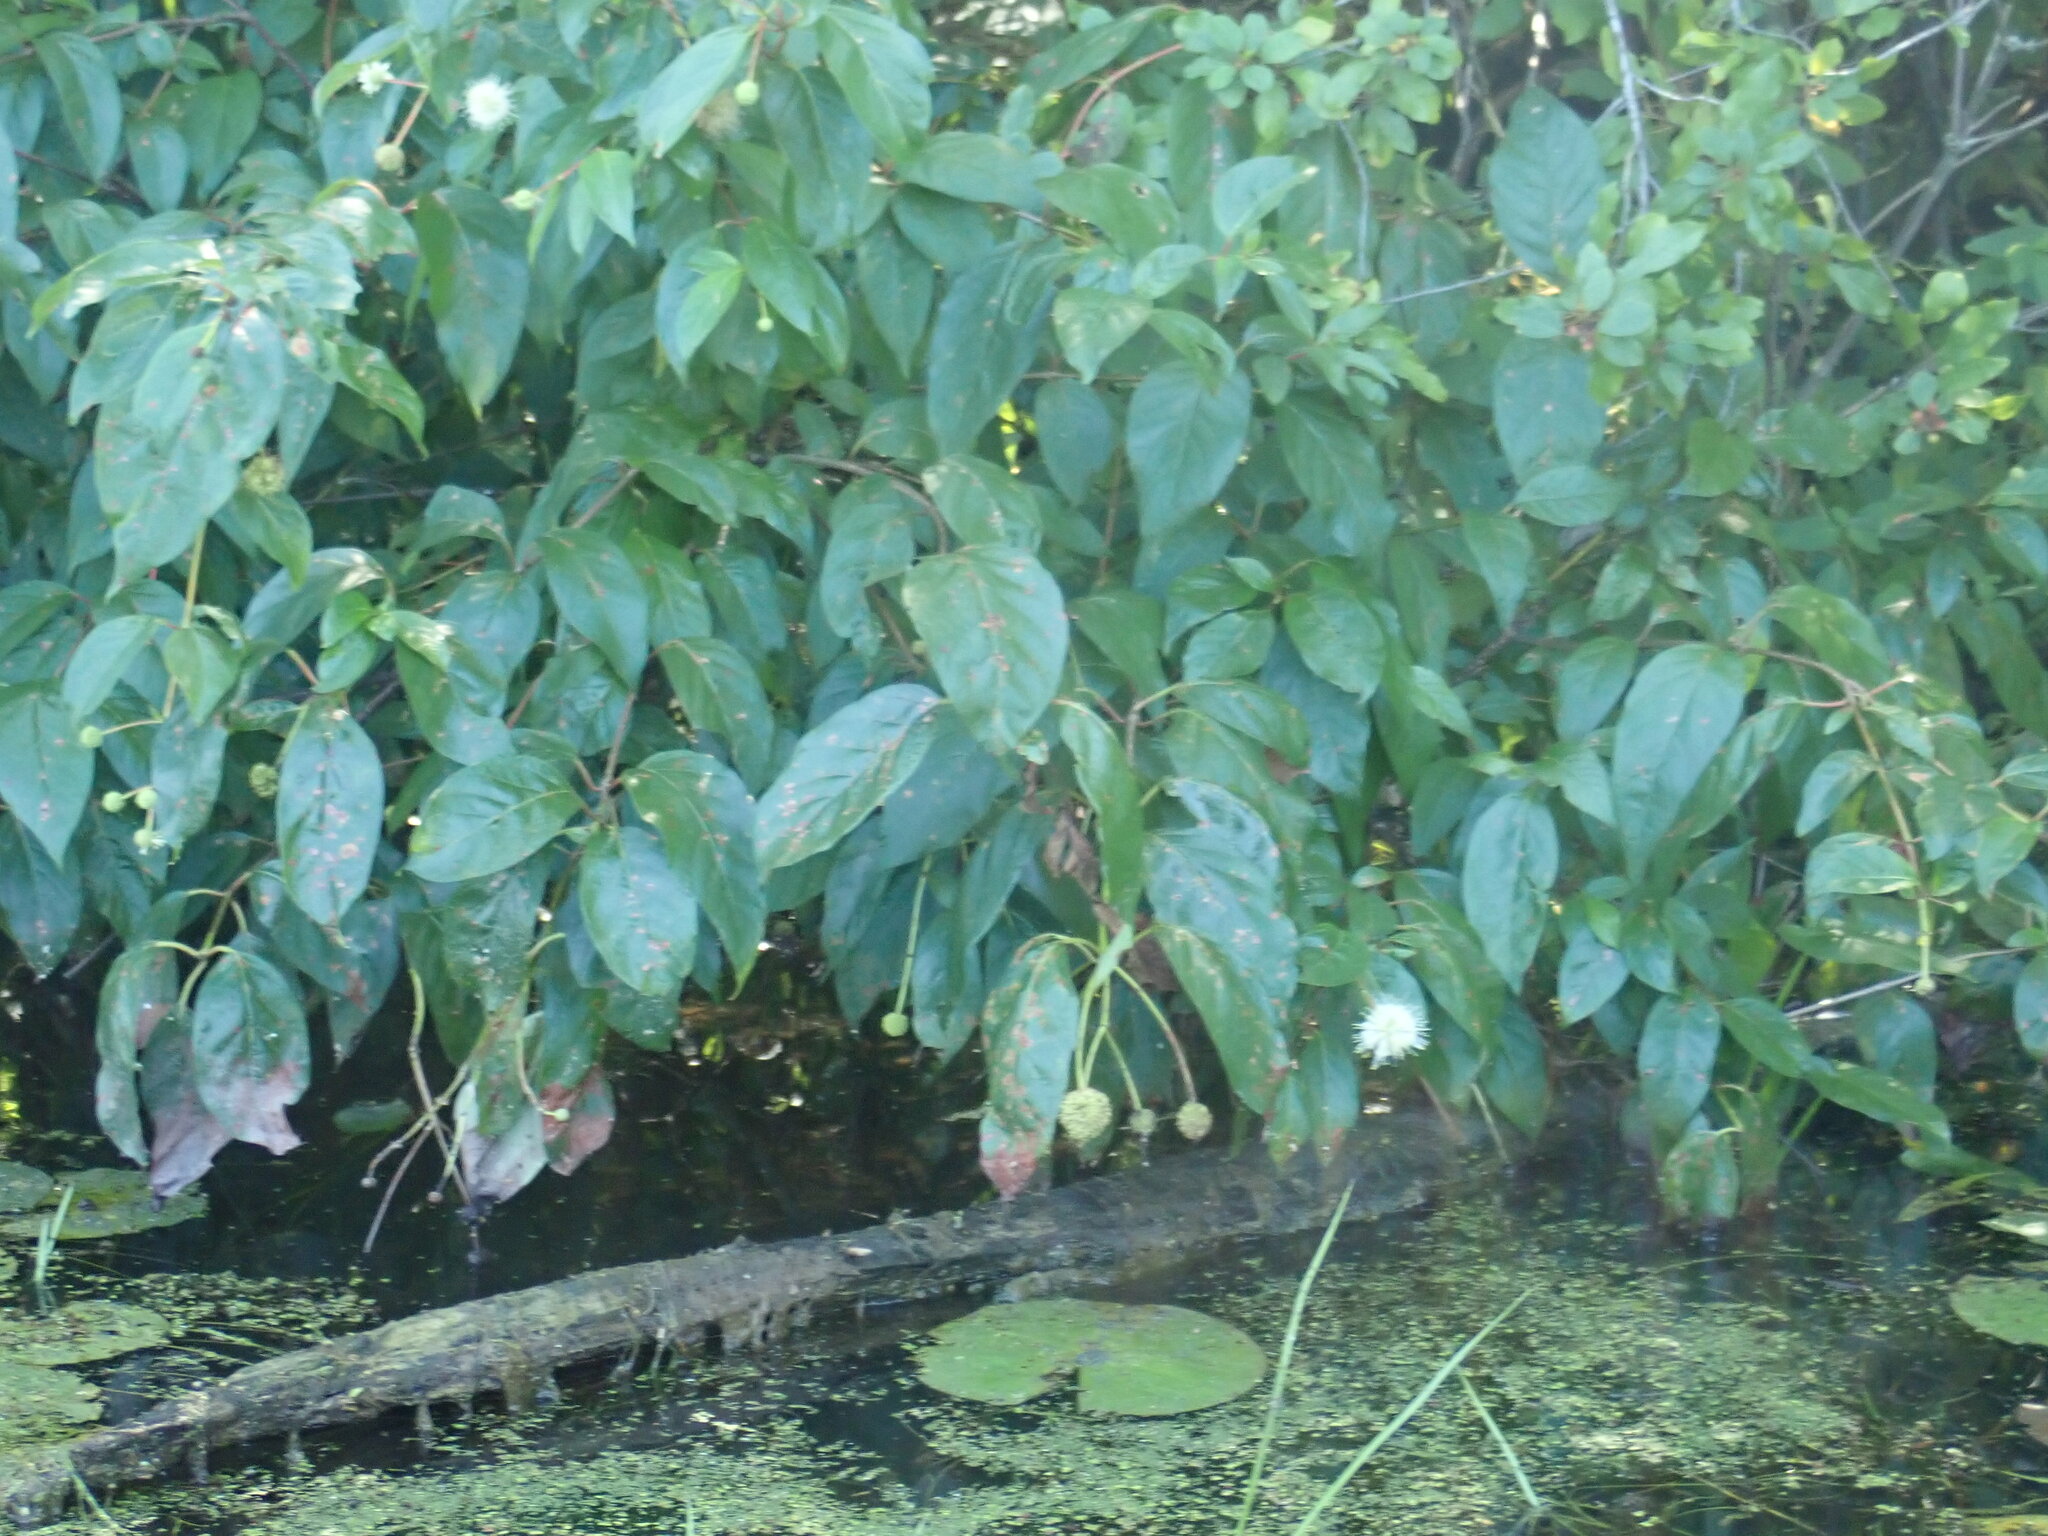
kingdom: Plantae
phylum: Tracheophyta
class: Magnoliopsida
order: Gentianales
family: Rubiaceae
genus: Cephalanthus
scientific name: Cephalanthus occidentalis
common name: Button-willow
